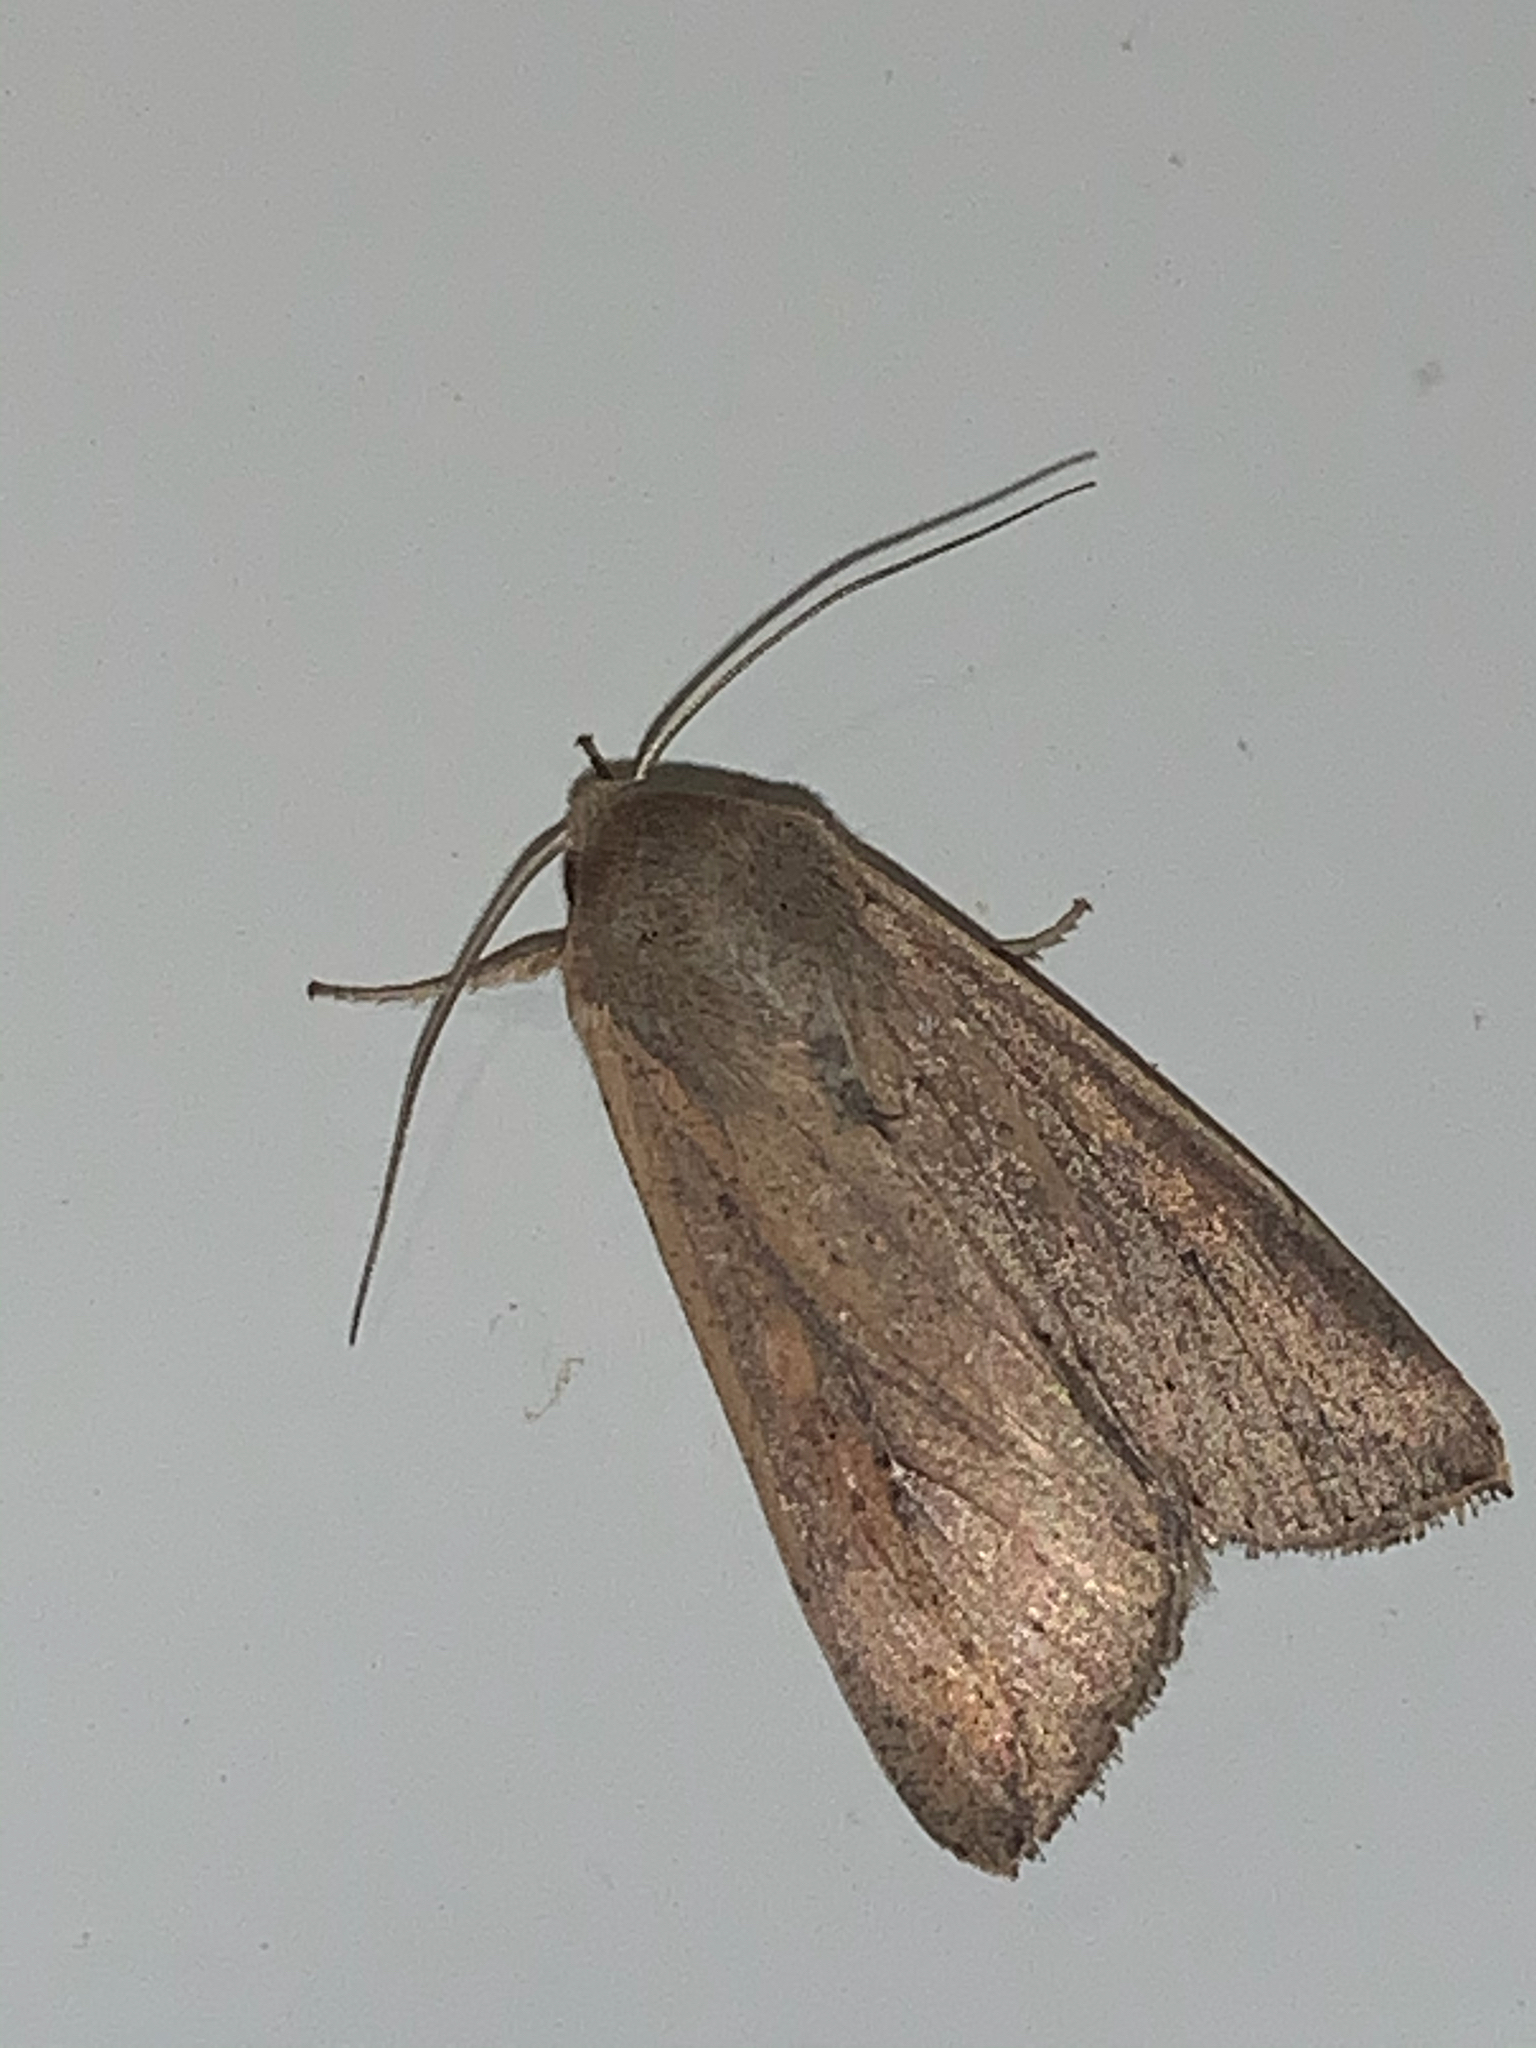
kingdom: Animalia
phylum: Arthropoda
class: Insecta
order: Lepidoptera
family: Noctuidae
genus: Mythimna
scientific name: Mythimna unipuncta
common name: White-speck
